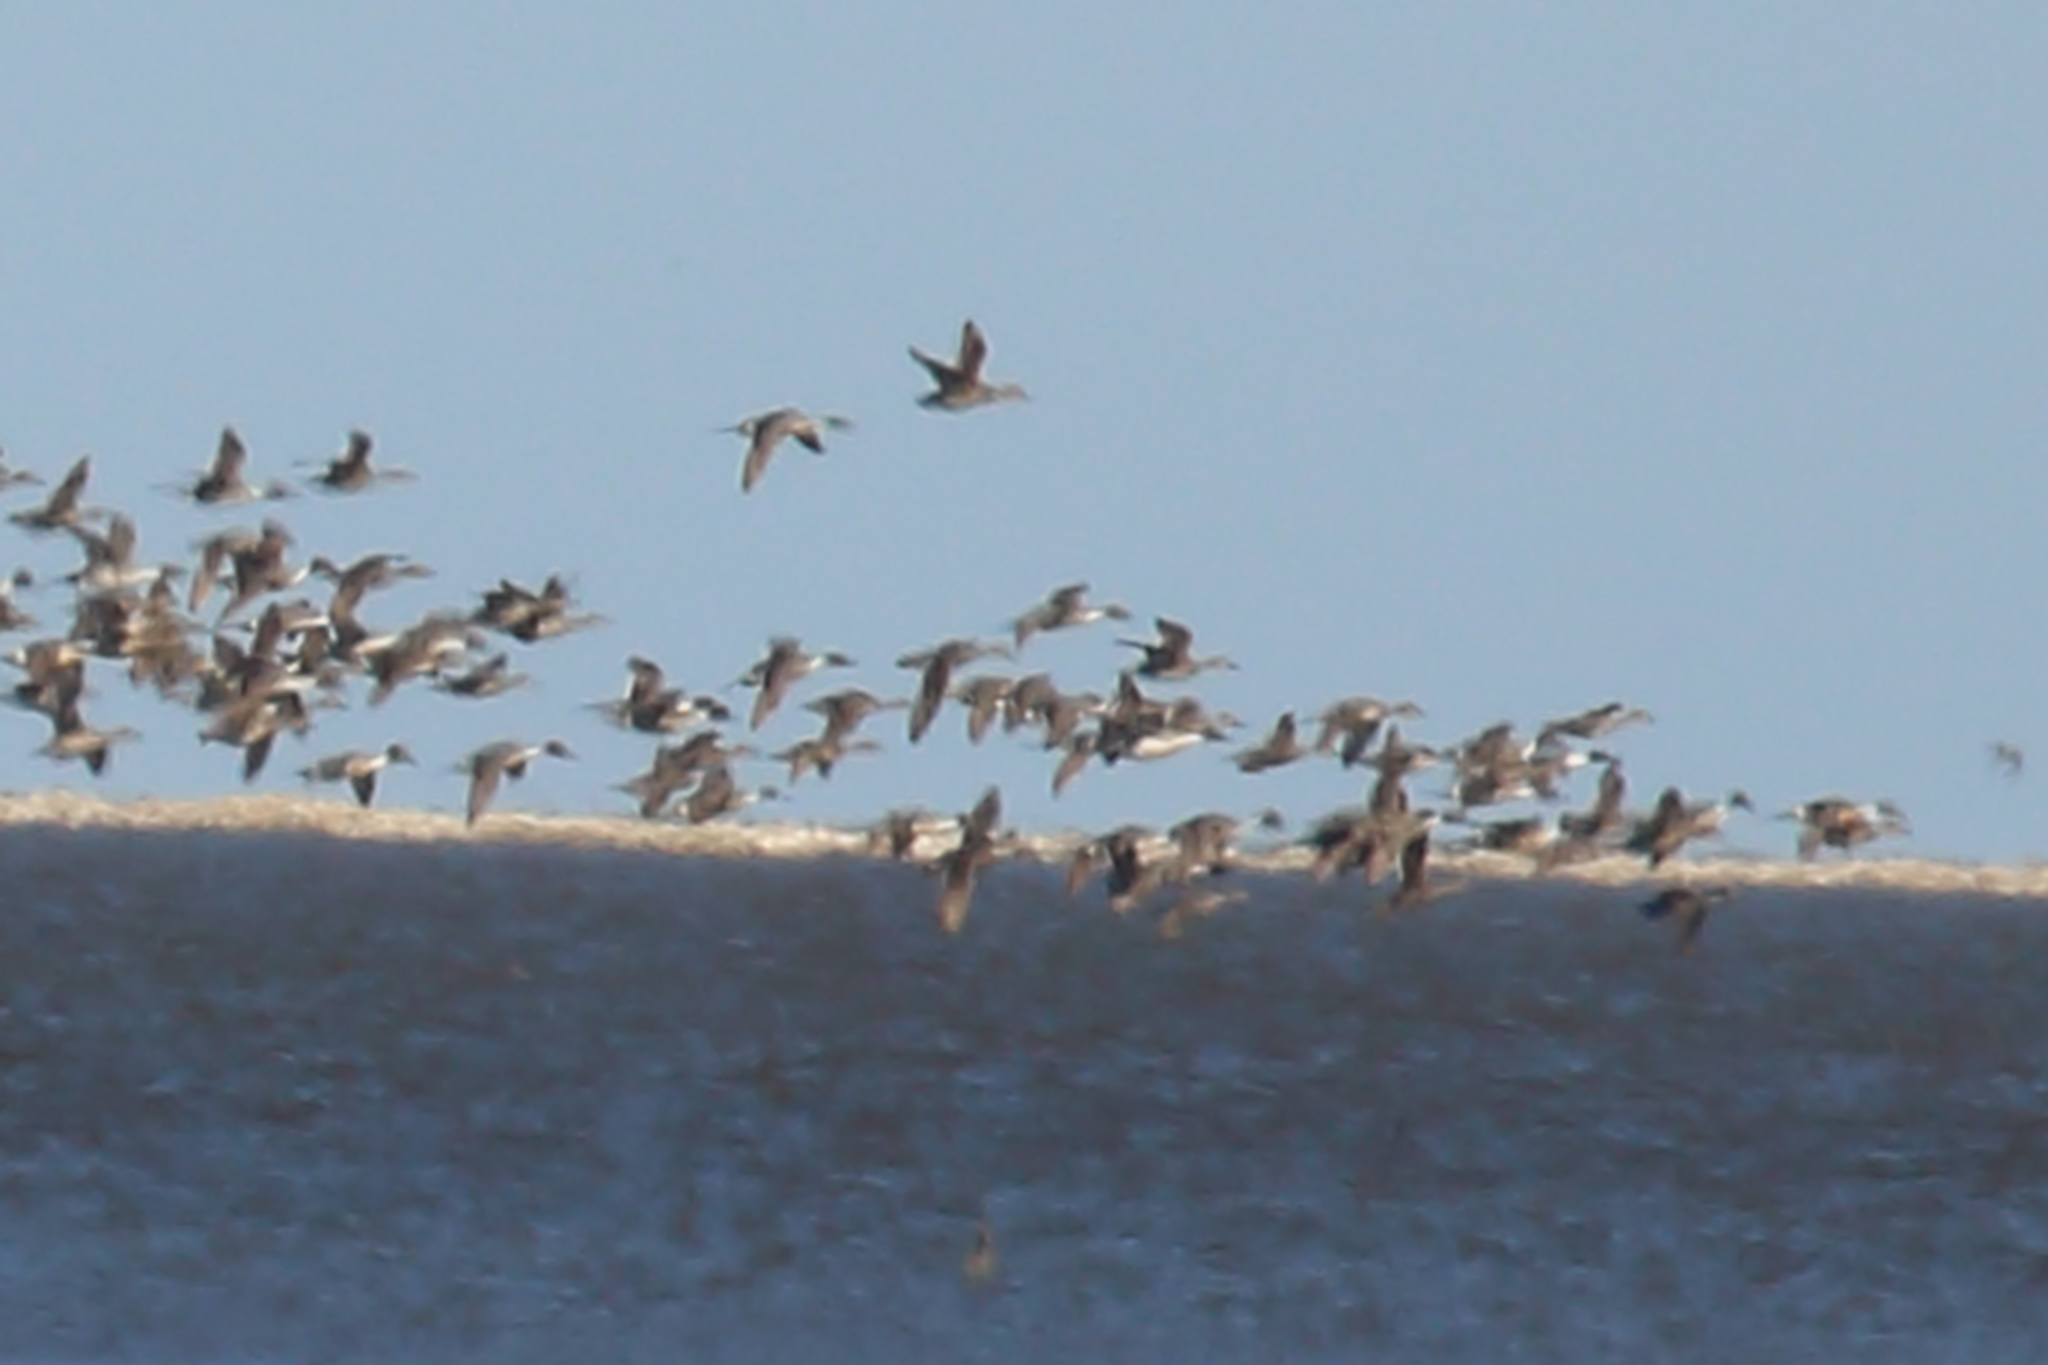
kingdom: Animalia
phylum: Chordata
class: Aves
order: Anseriformes
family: Anatidae
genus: Anas
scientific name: Anas acuta
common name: Northern pintail
